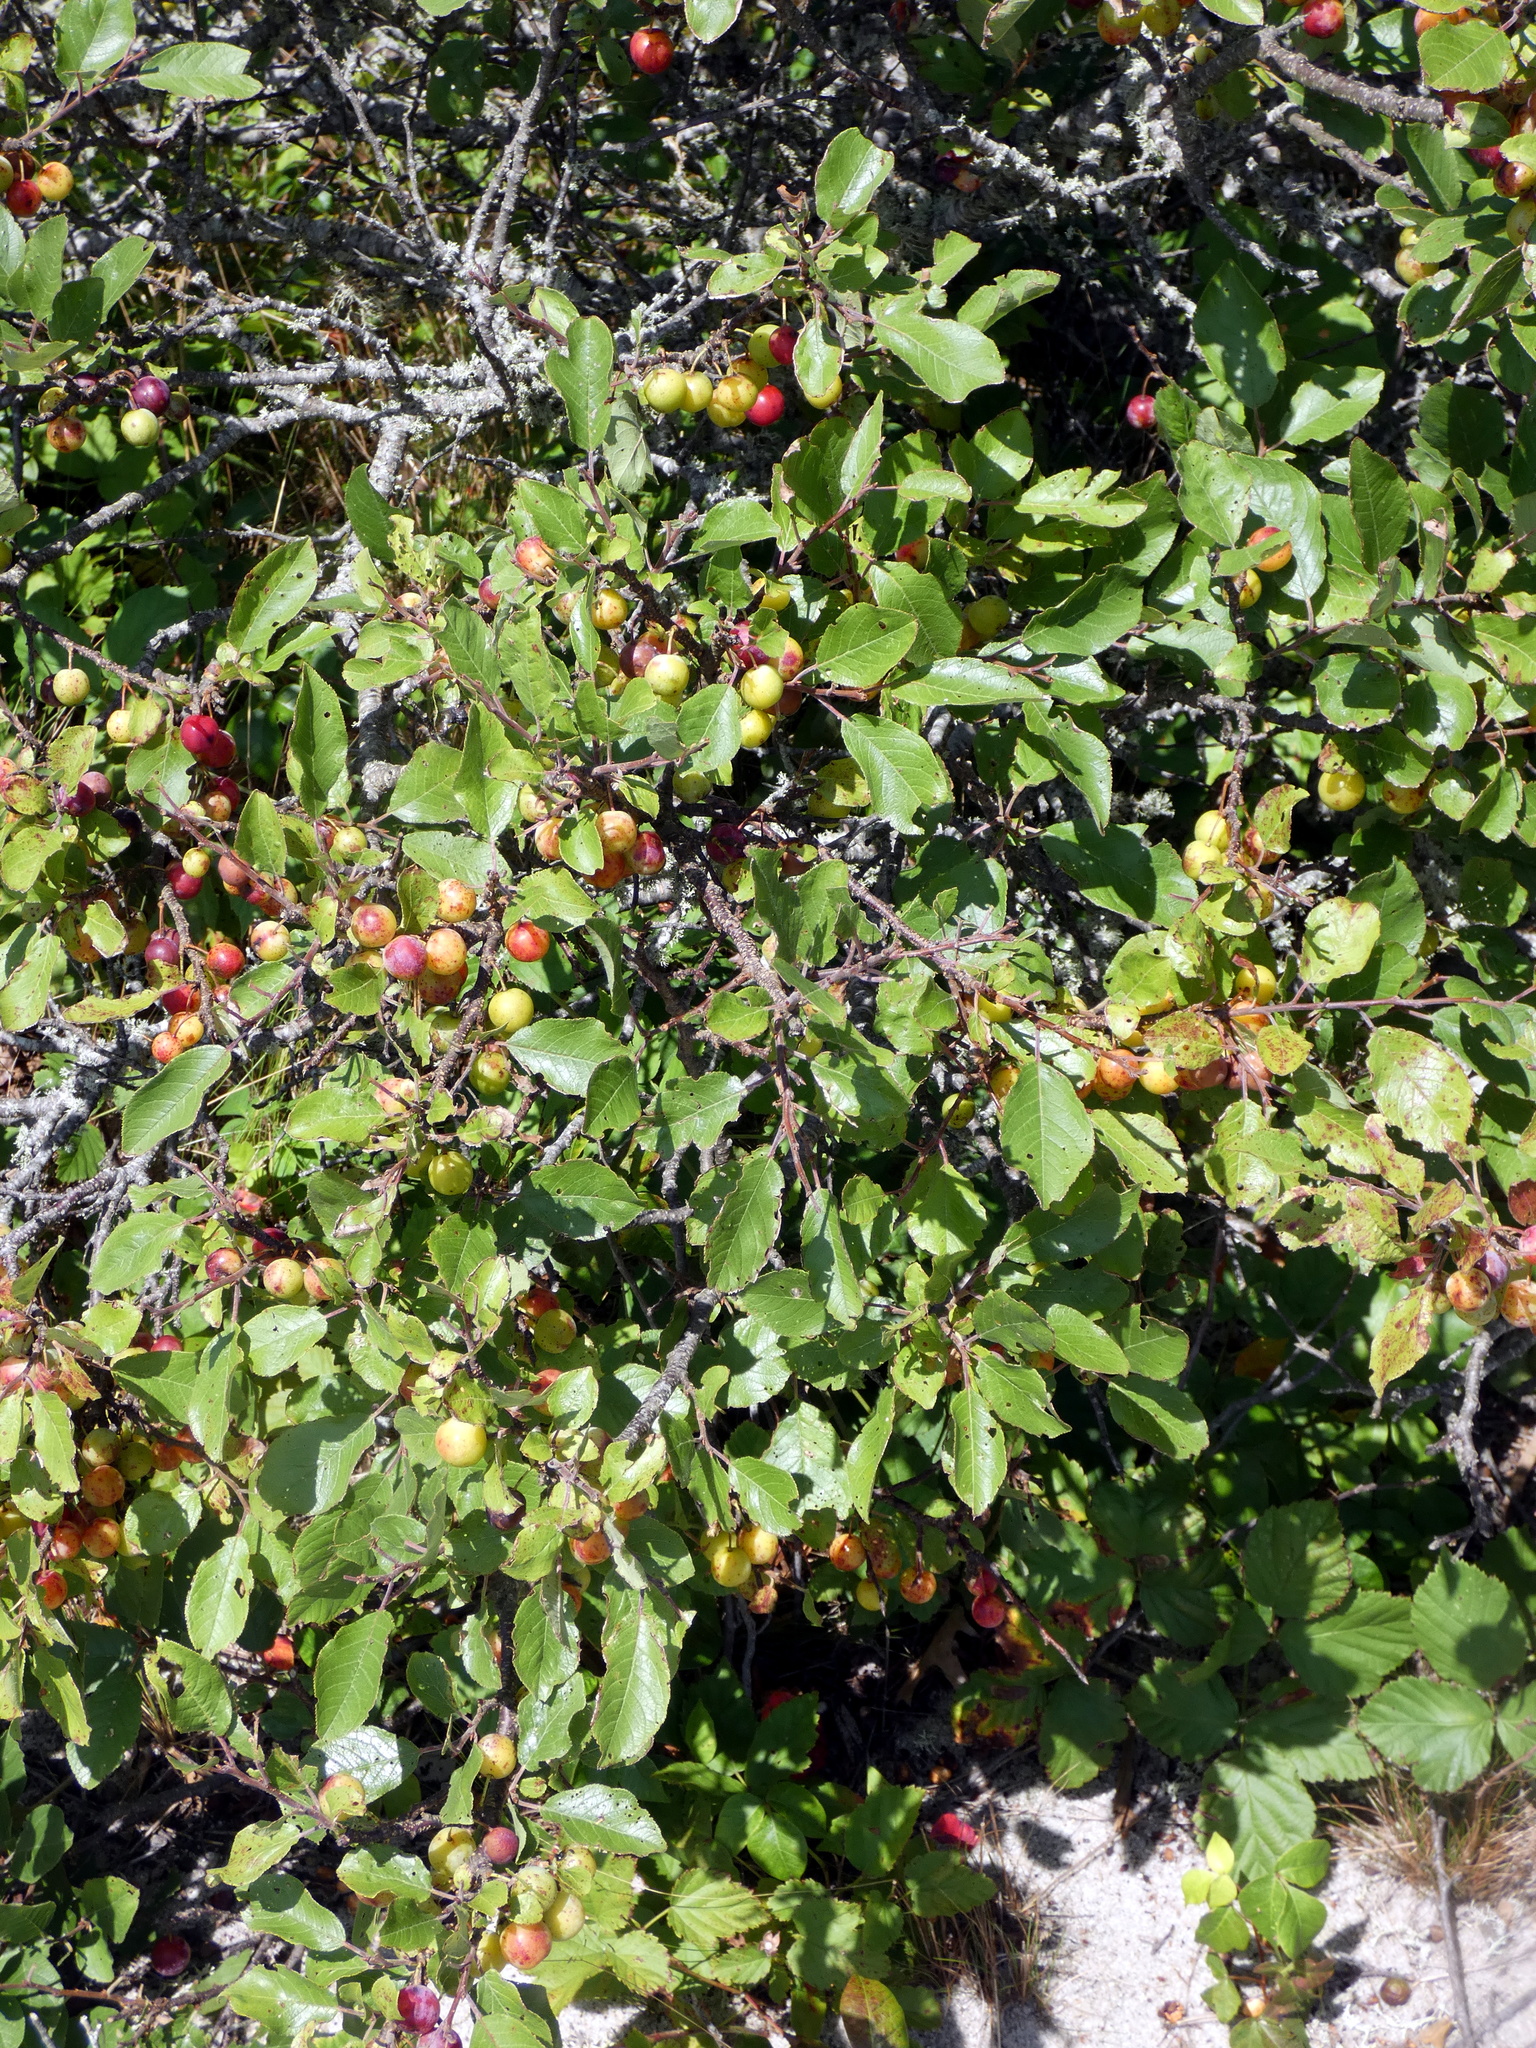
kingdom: Plantae
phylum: Tracheophyta
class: Magnoliopsida
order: Rosales
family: Rosaceae
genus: Prunus
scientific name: Prunus maritima
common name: Beach plum
